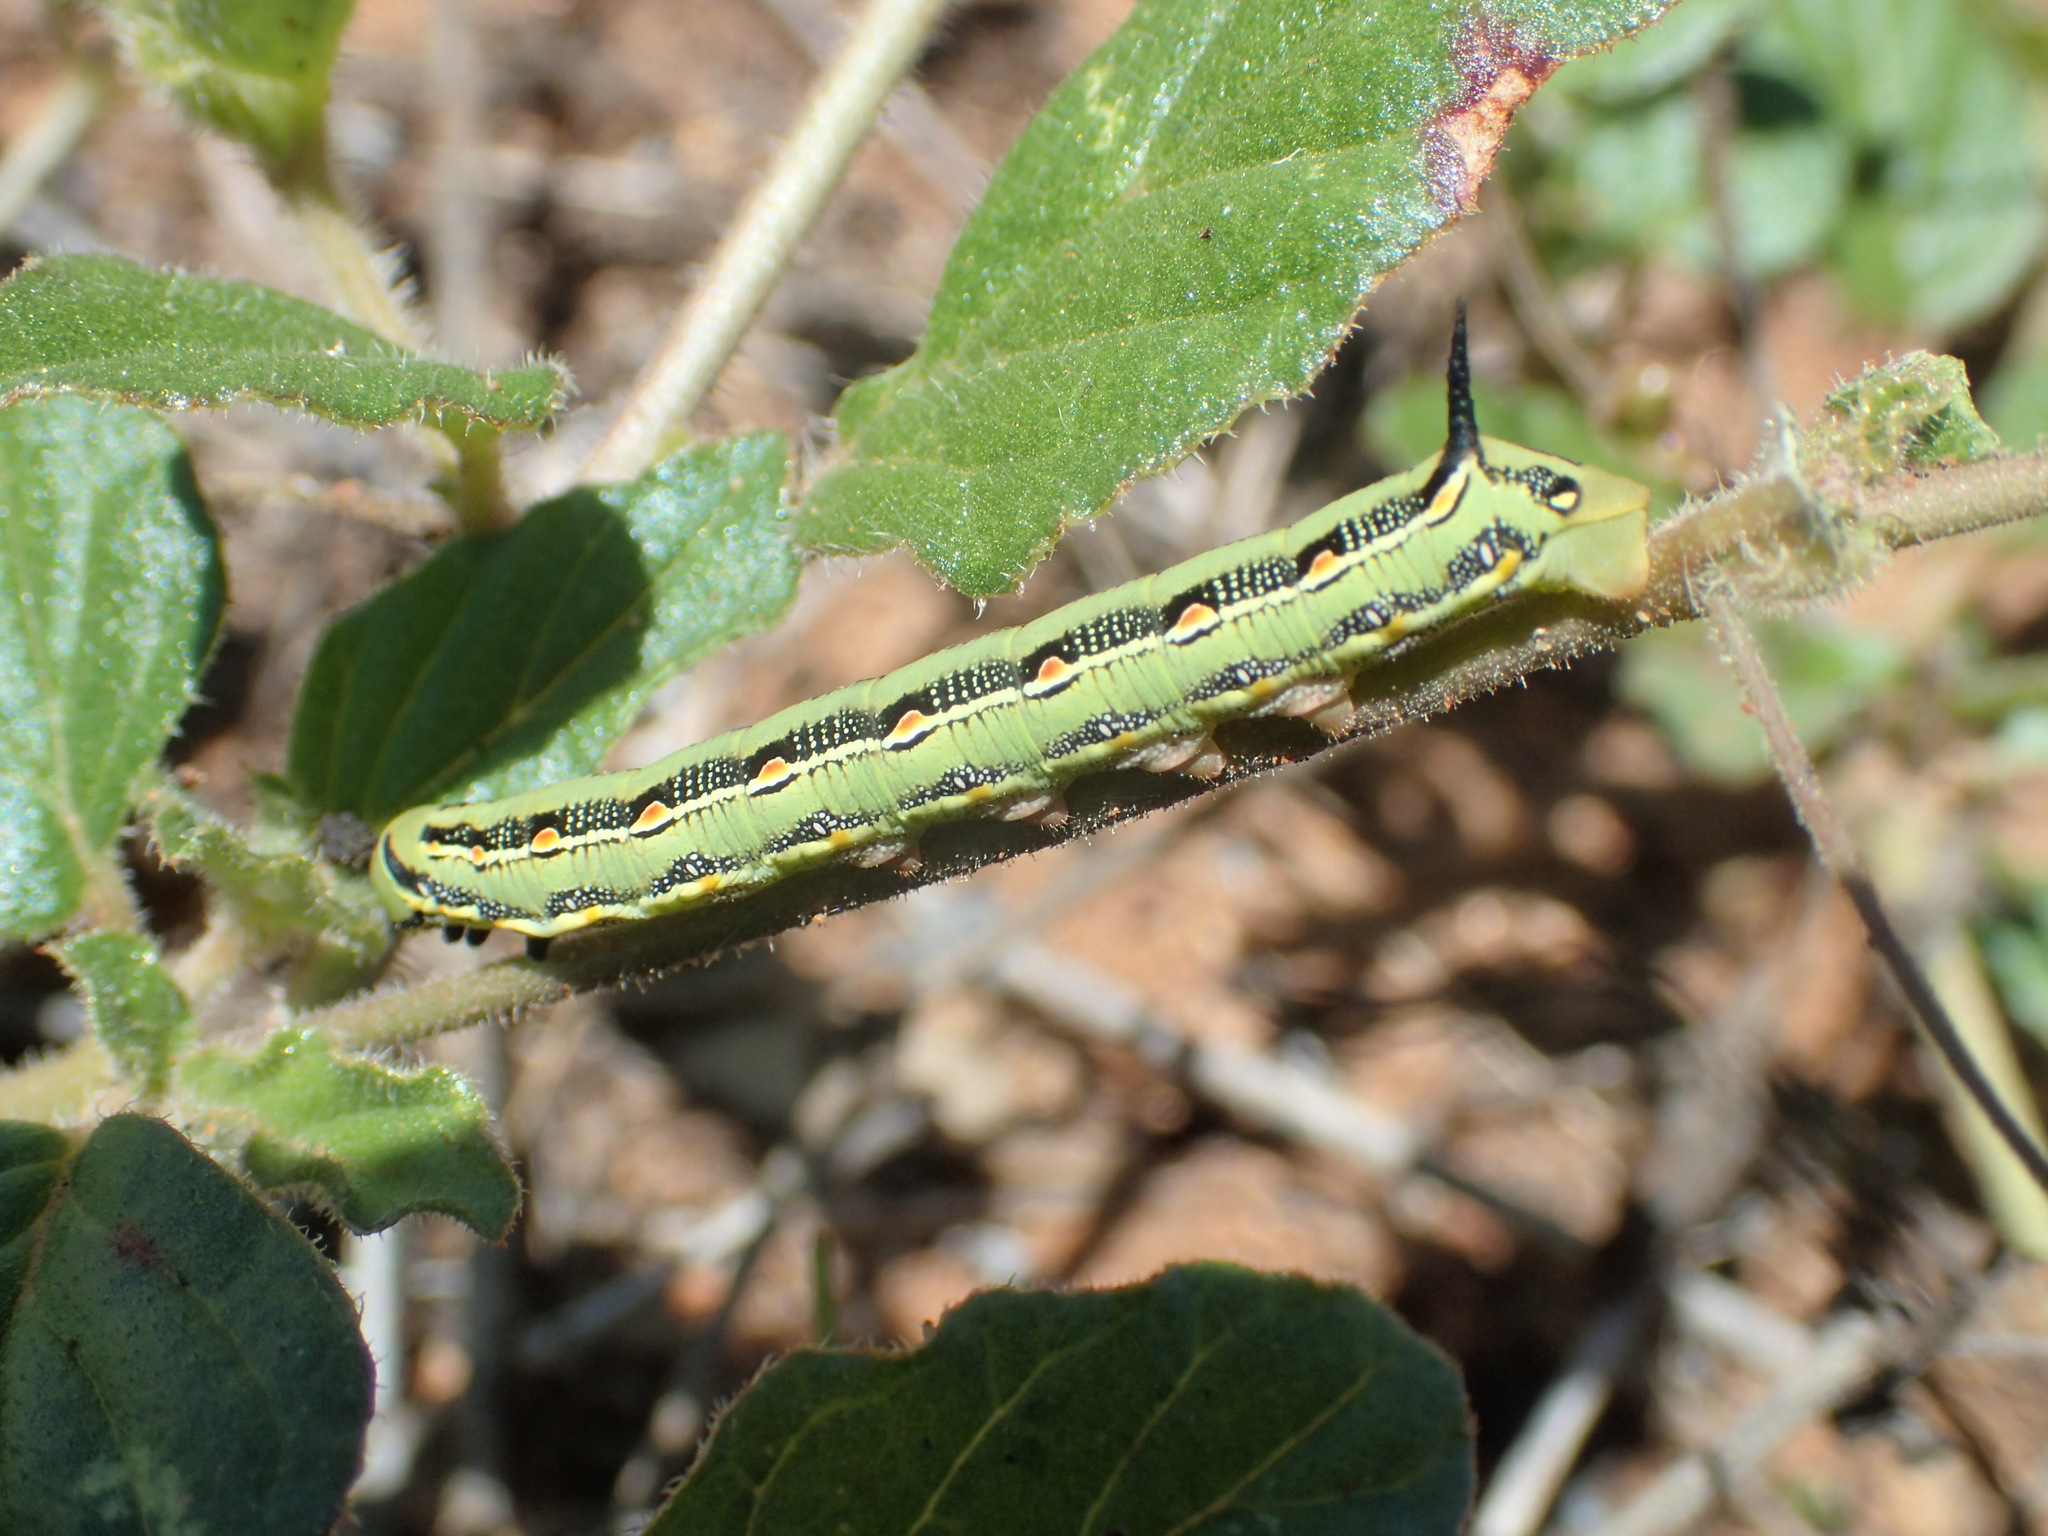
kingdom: Animalia
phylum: Arthropoda
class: Insecta
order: Lepidoptera
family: Sphingidae
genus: Hyles
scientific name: Hyles livornicoides
